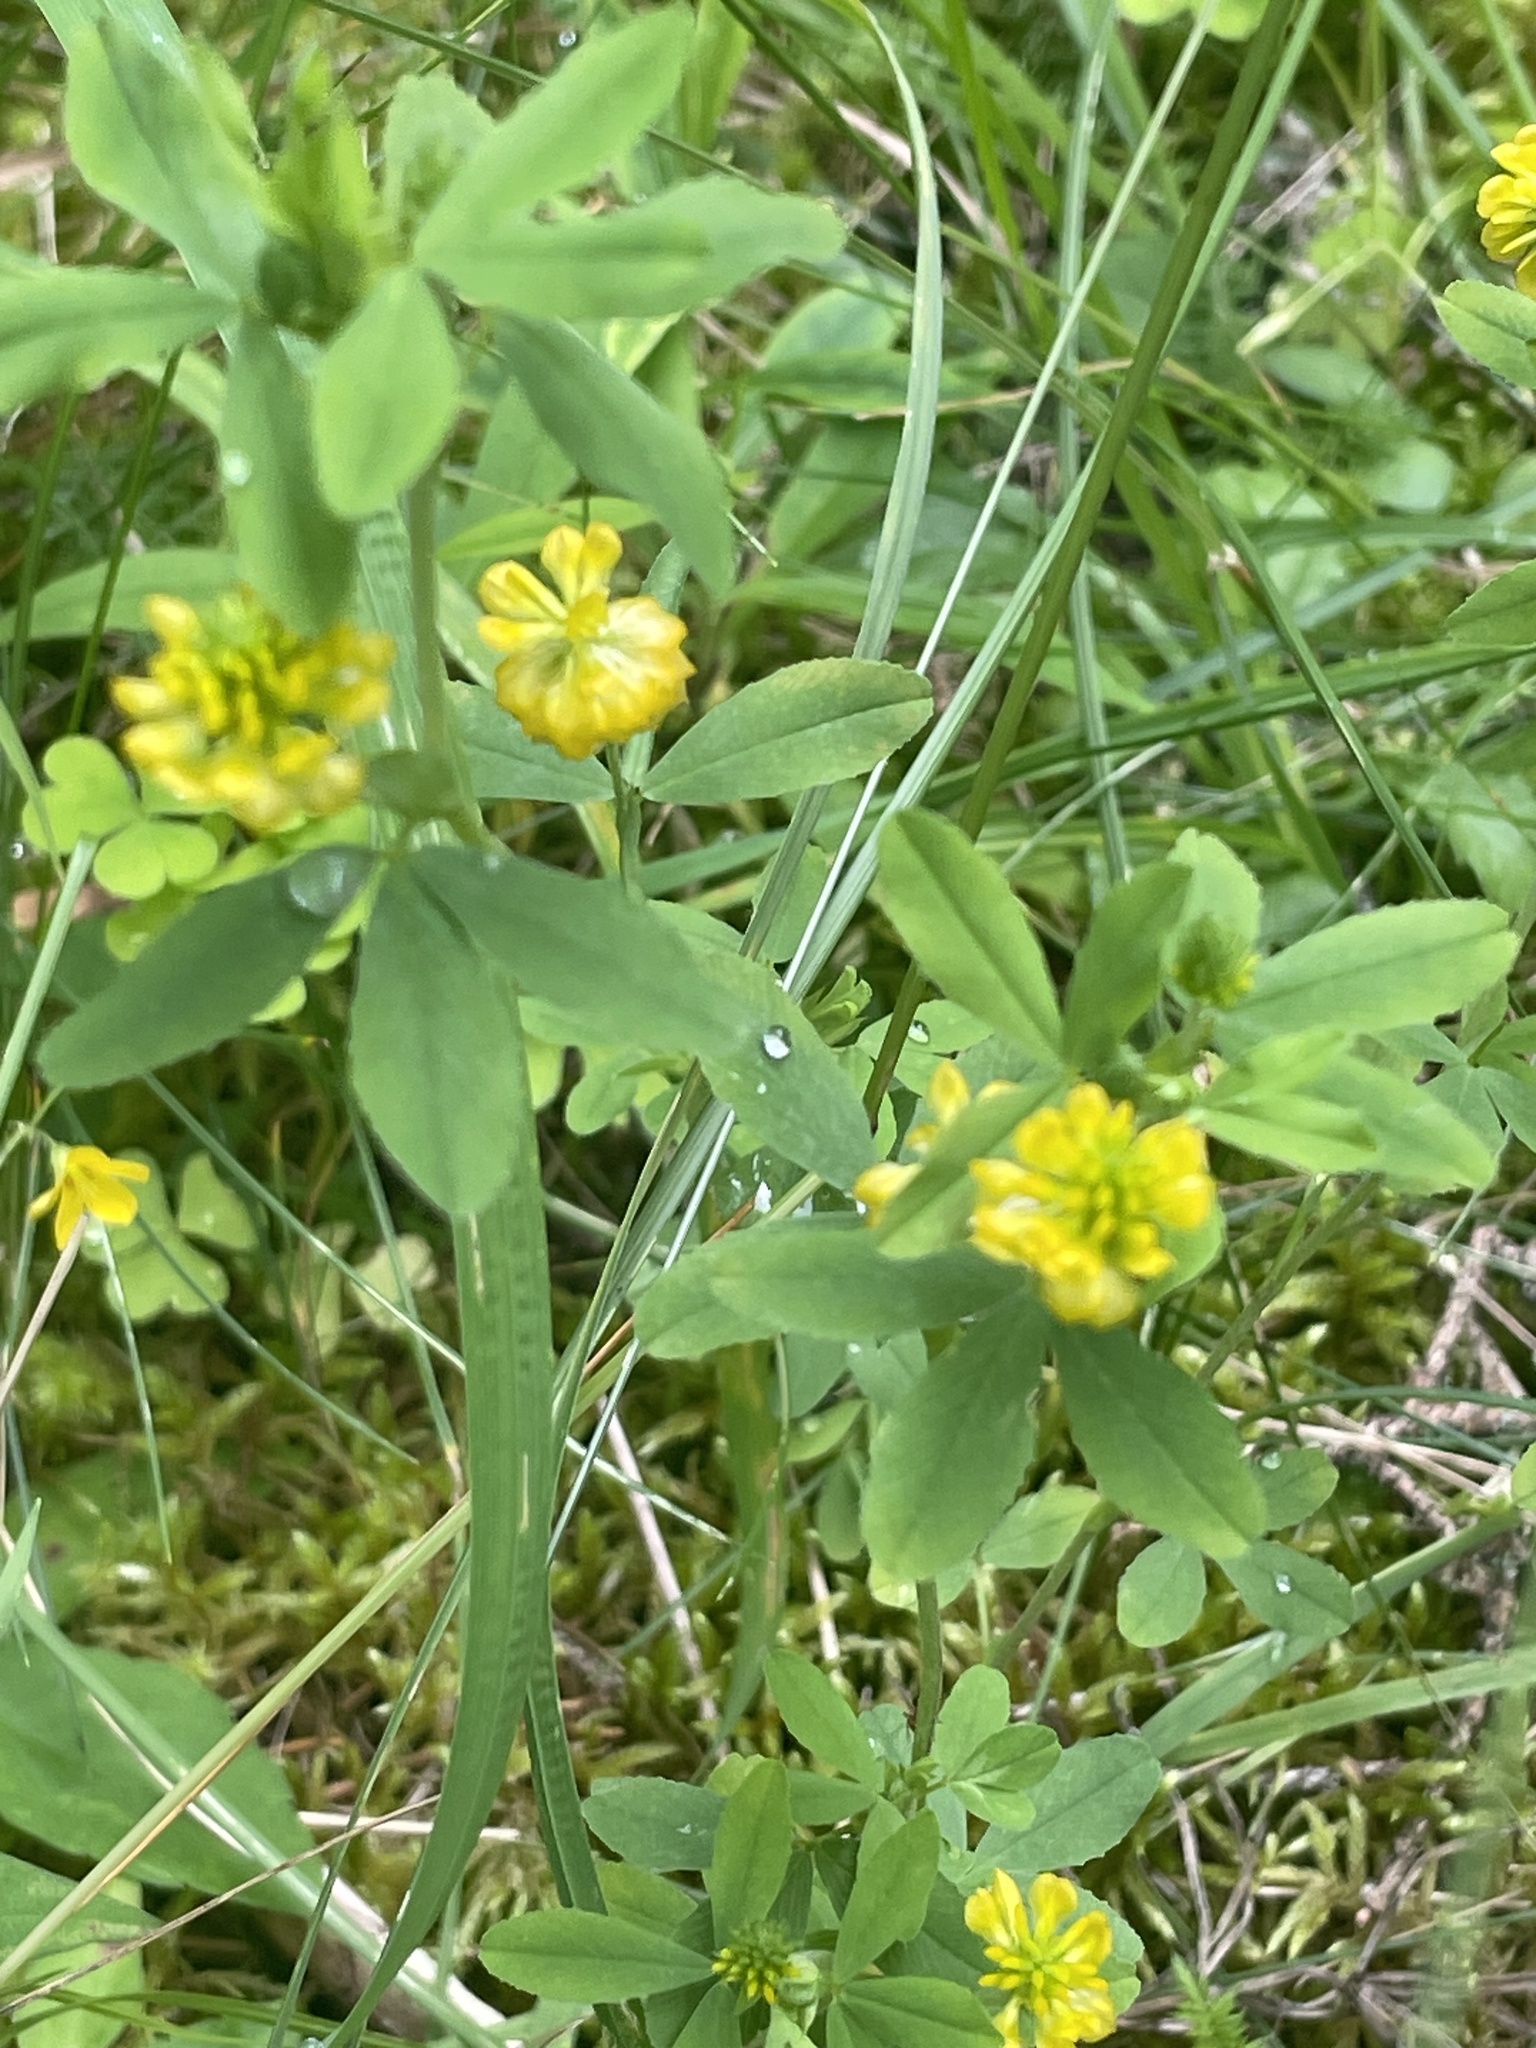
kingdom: Plantae
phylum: Tracheophyta
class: Magnoliopsida
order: Fabales
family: Fabaceae
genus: Trifolium
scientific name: Trifolium aureum
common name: Golden clover
